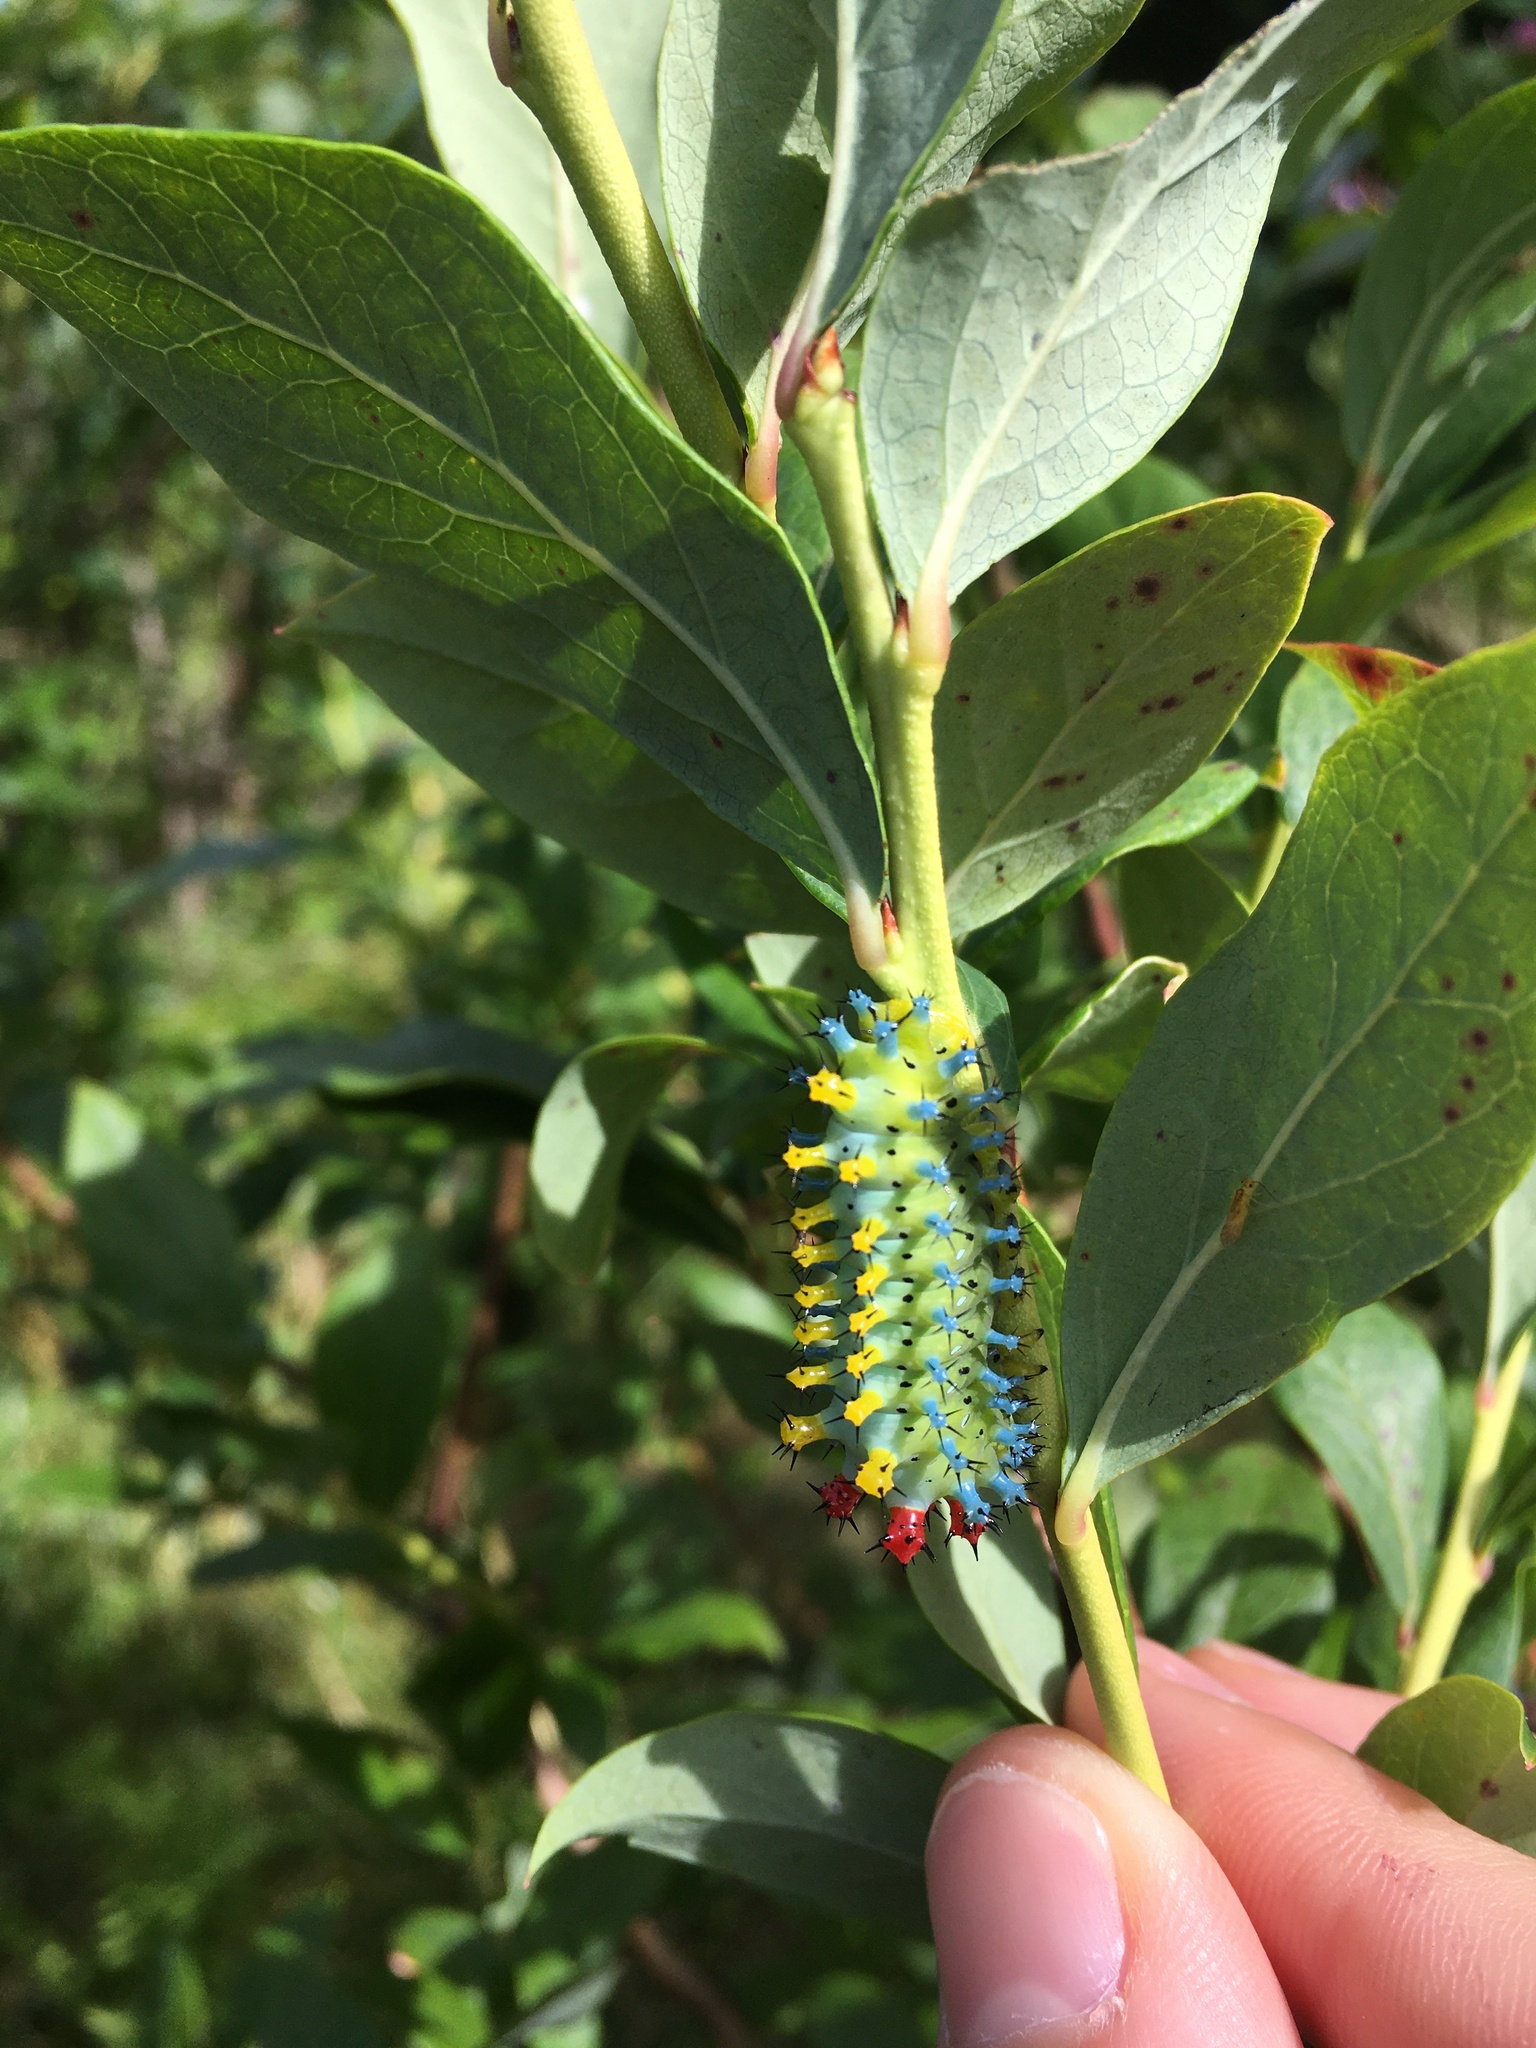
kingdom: Animalia
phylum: Arthropoda
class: Insecta
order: Lepidoptera
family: Saturniidae
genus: Hyalophora
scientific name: Hyalophora cecropia
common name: Cecropia silkmoth
